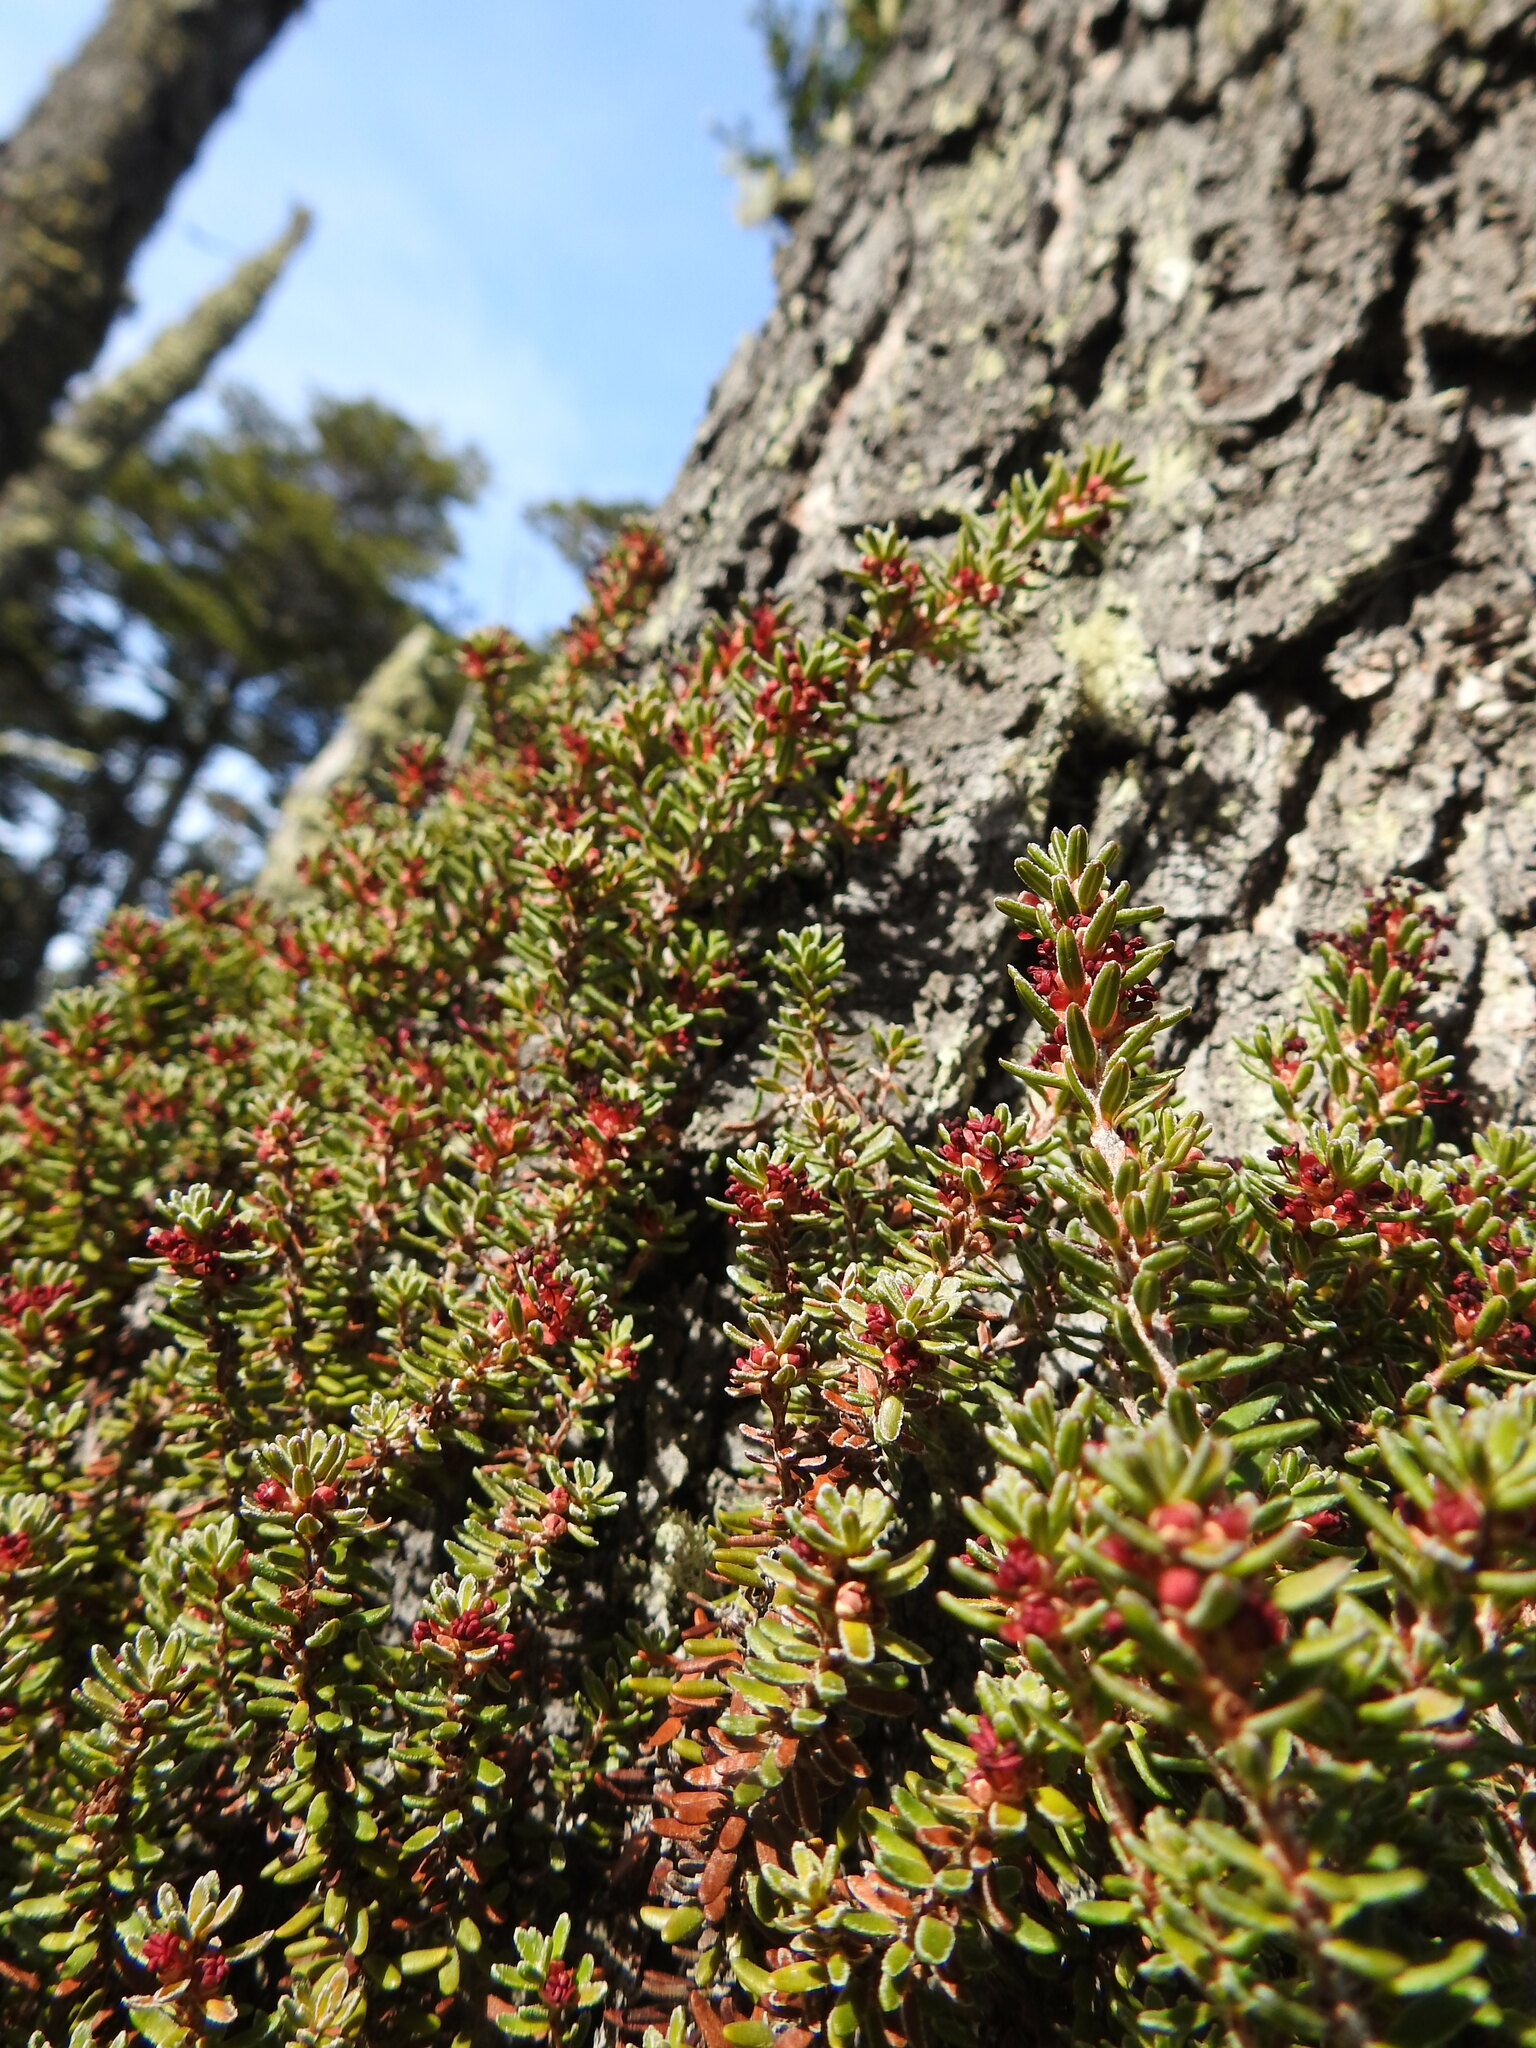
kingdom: Plantae
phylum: Tracheophyta
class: Magnoliopsida
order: Ericales
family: Ericaceae
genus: Empetrum
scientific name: Empetrum rubrum
